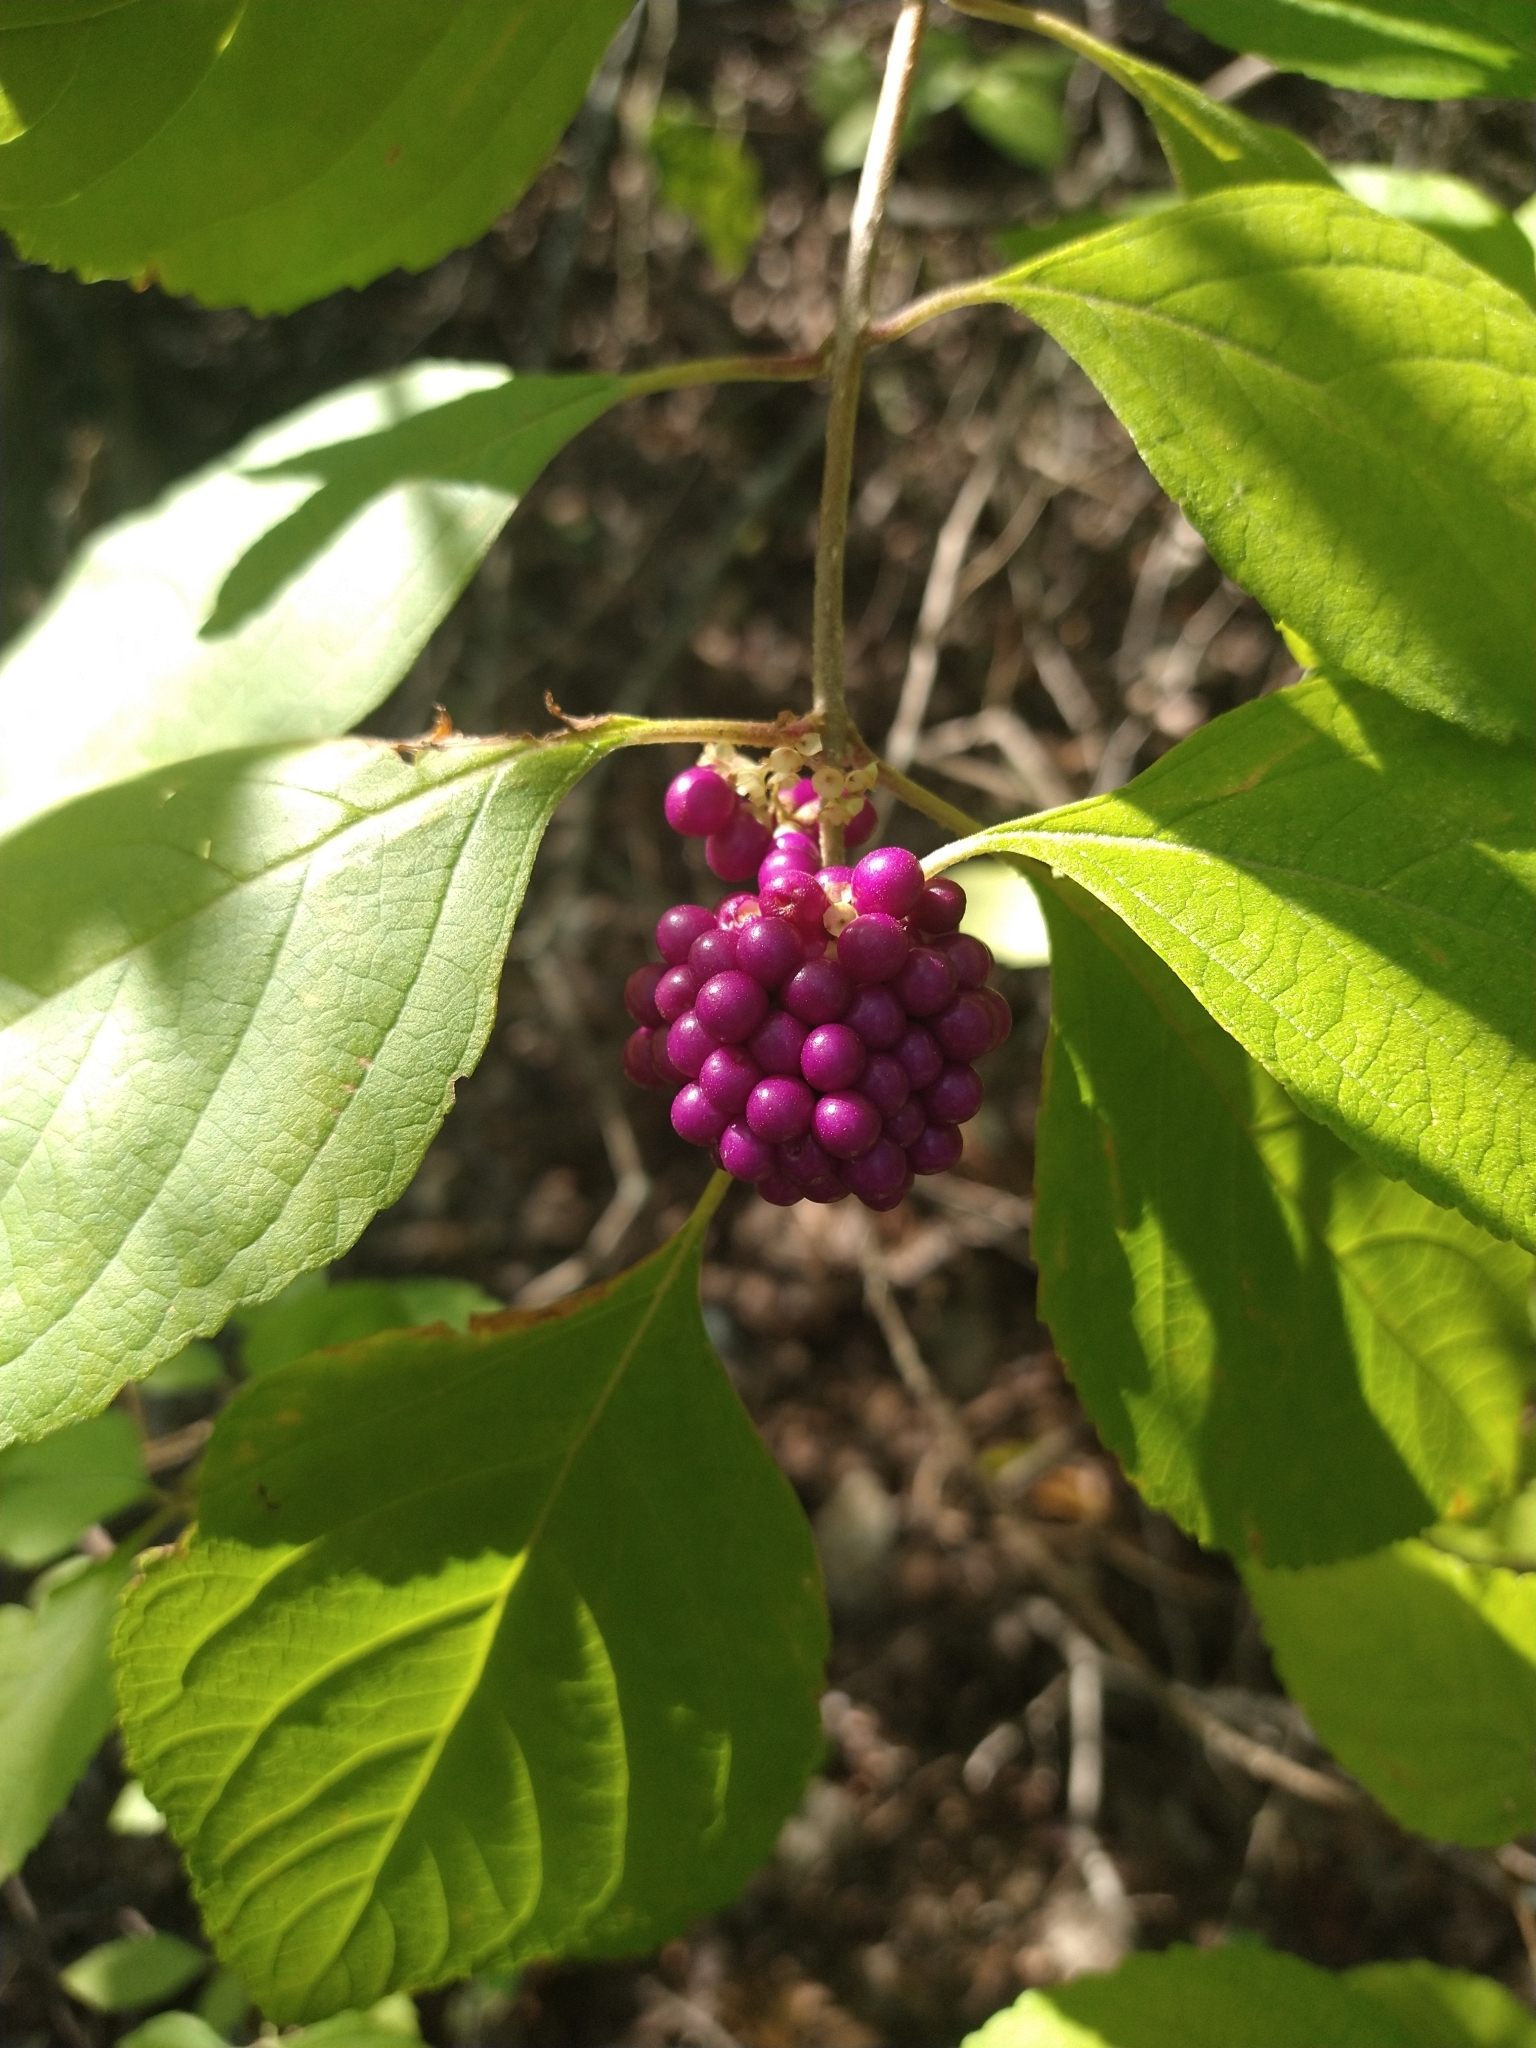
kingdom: Plantae
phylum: Tracheophyta
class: Magnoliopsida
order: Lamiales
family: Lamiaceae
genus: Callicarpa
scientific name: Callicarpa americana
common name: American beautyberry
